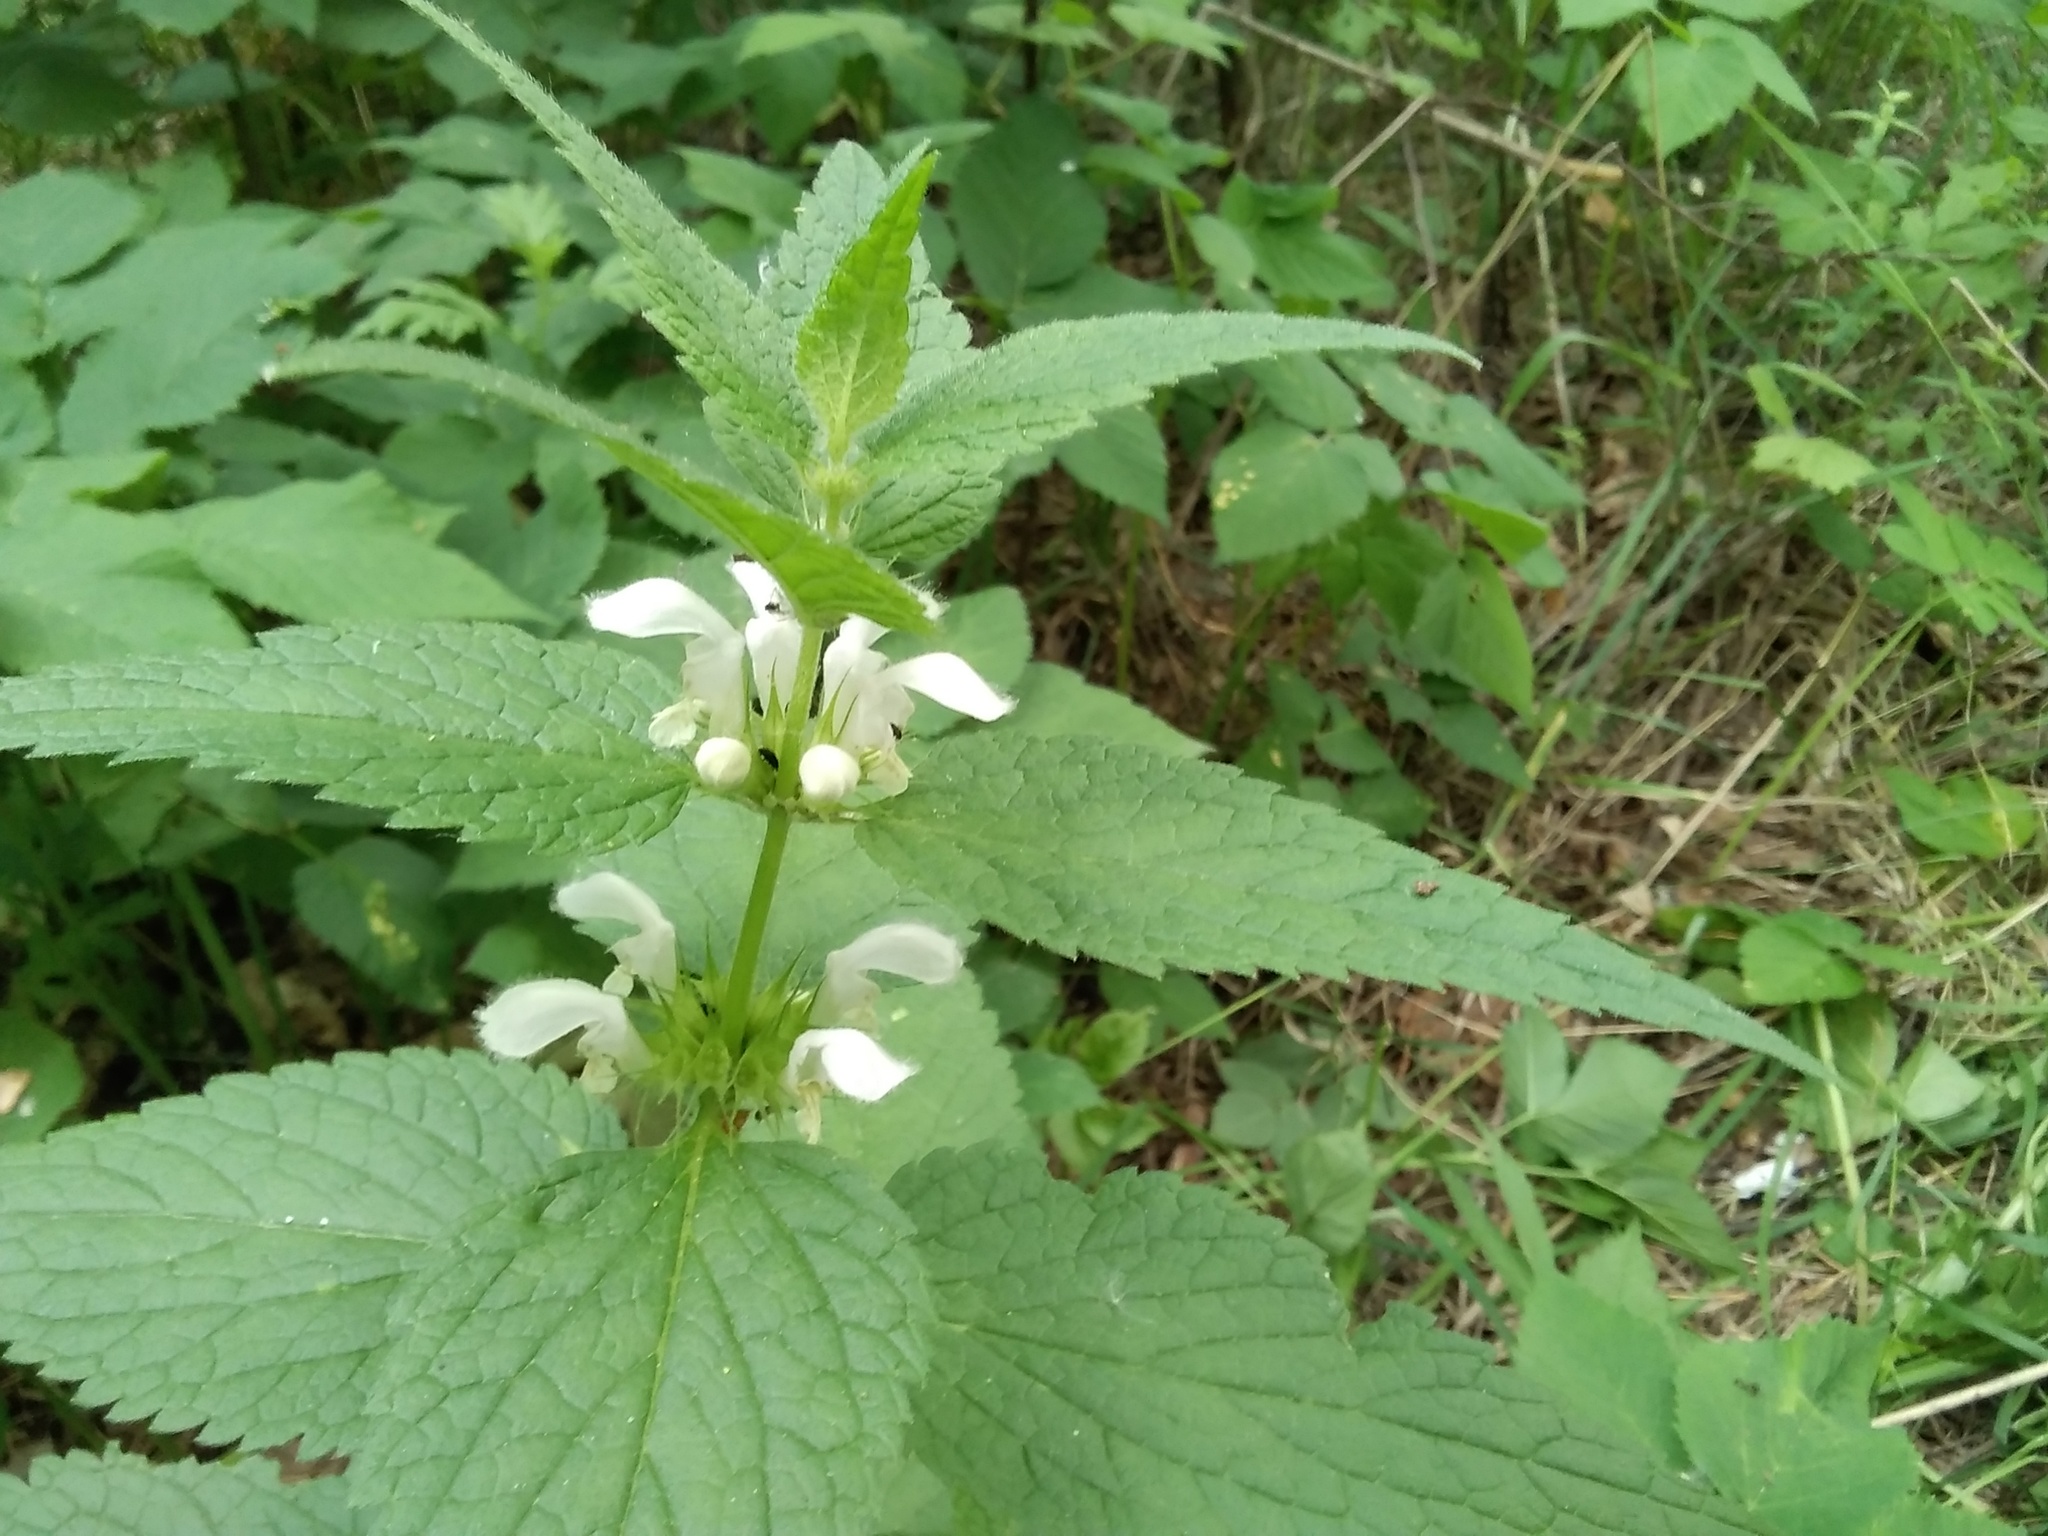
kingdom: Plantae
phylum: Tracheophyta
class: Magnoliopsida
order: Lamiales
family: Lamiaceae
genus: Lamium
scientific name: Lamium album
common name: White dead-nettle
